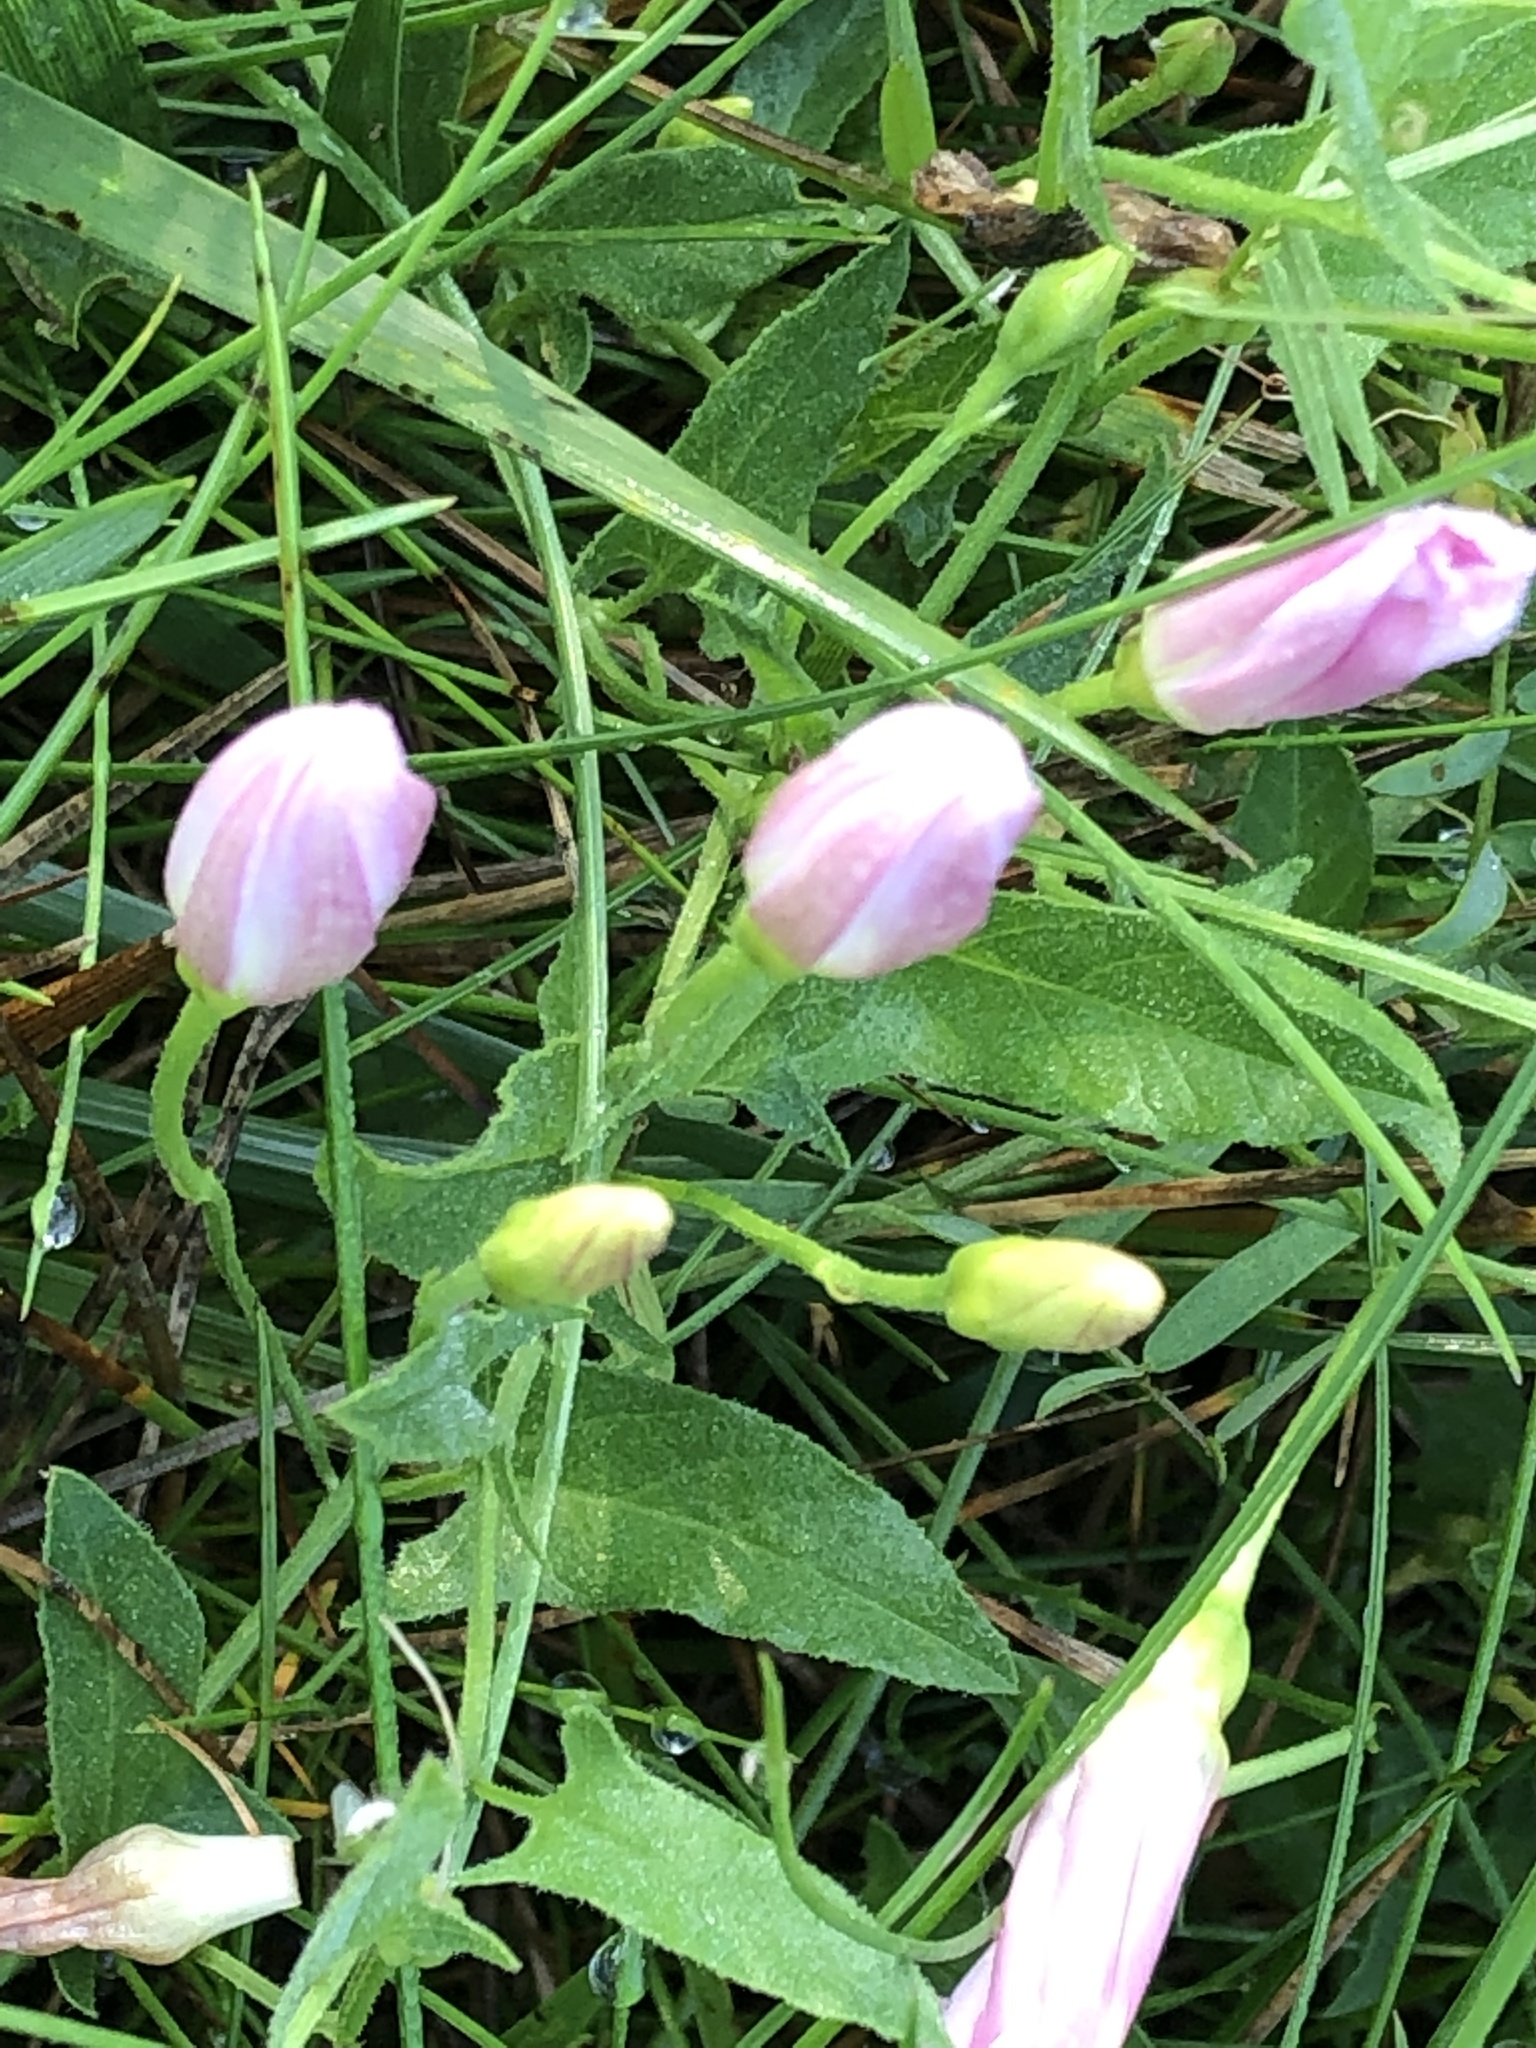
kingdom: Plantae
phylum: Tracheophyta
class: Magnoliopsida
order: Solanales
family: Convolvulaceae
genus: Convolvulus
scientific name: Convolvulus arvensis
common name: Field bindweed
